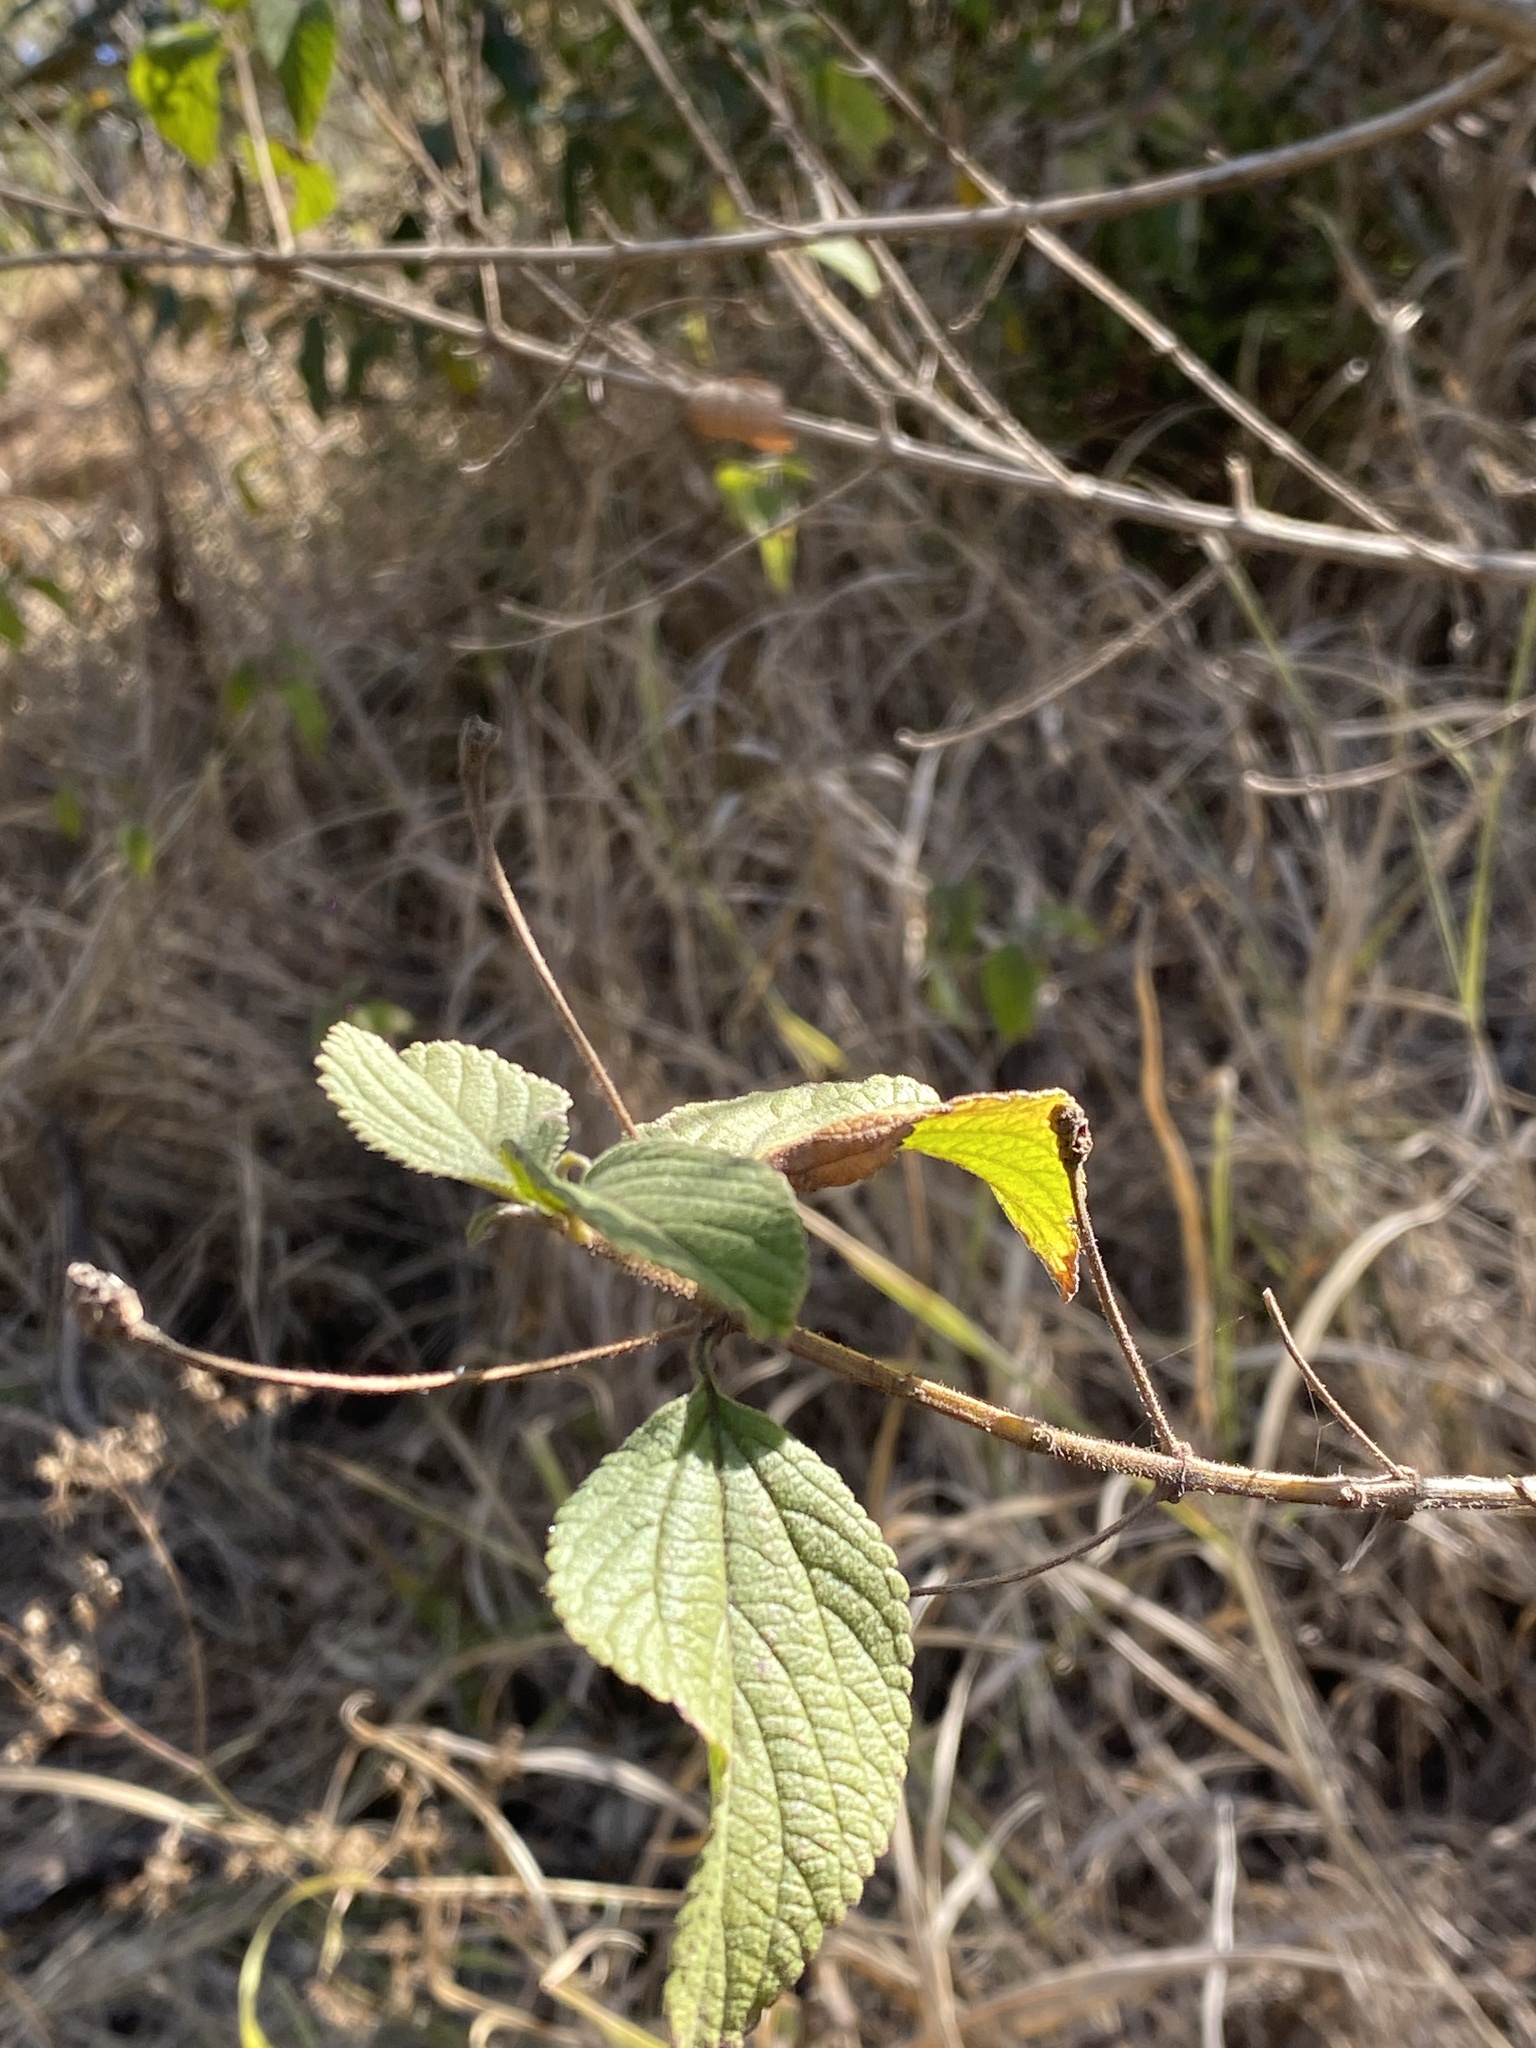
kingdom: Plantae
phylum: Tracheophyta
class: Magnoliopsida
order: Lamiales
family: Verbenaceae
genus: Lantana
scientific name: Lantana camara
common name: Lantana
